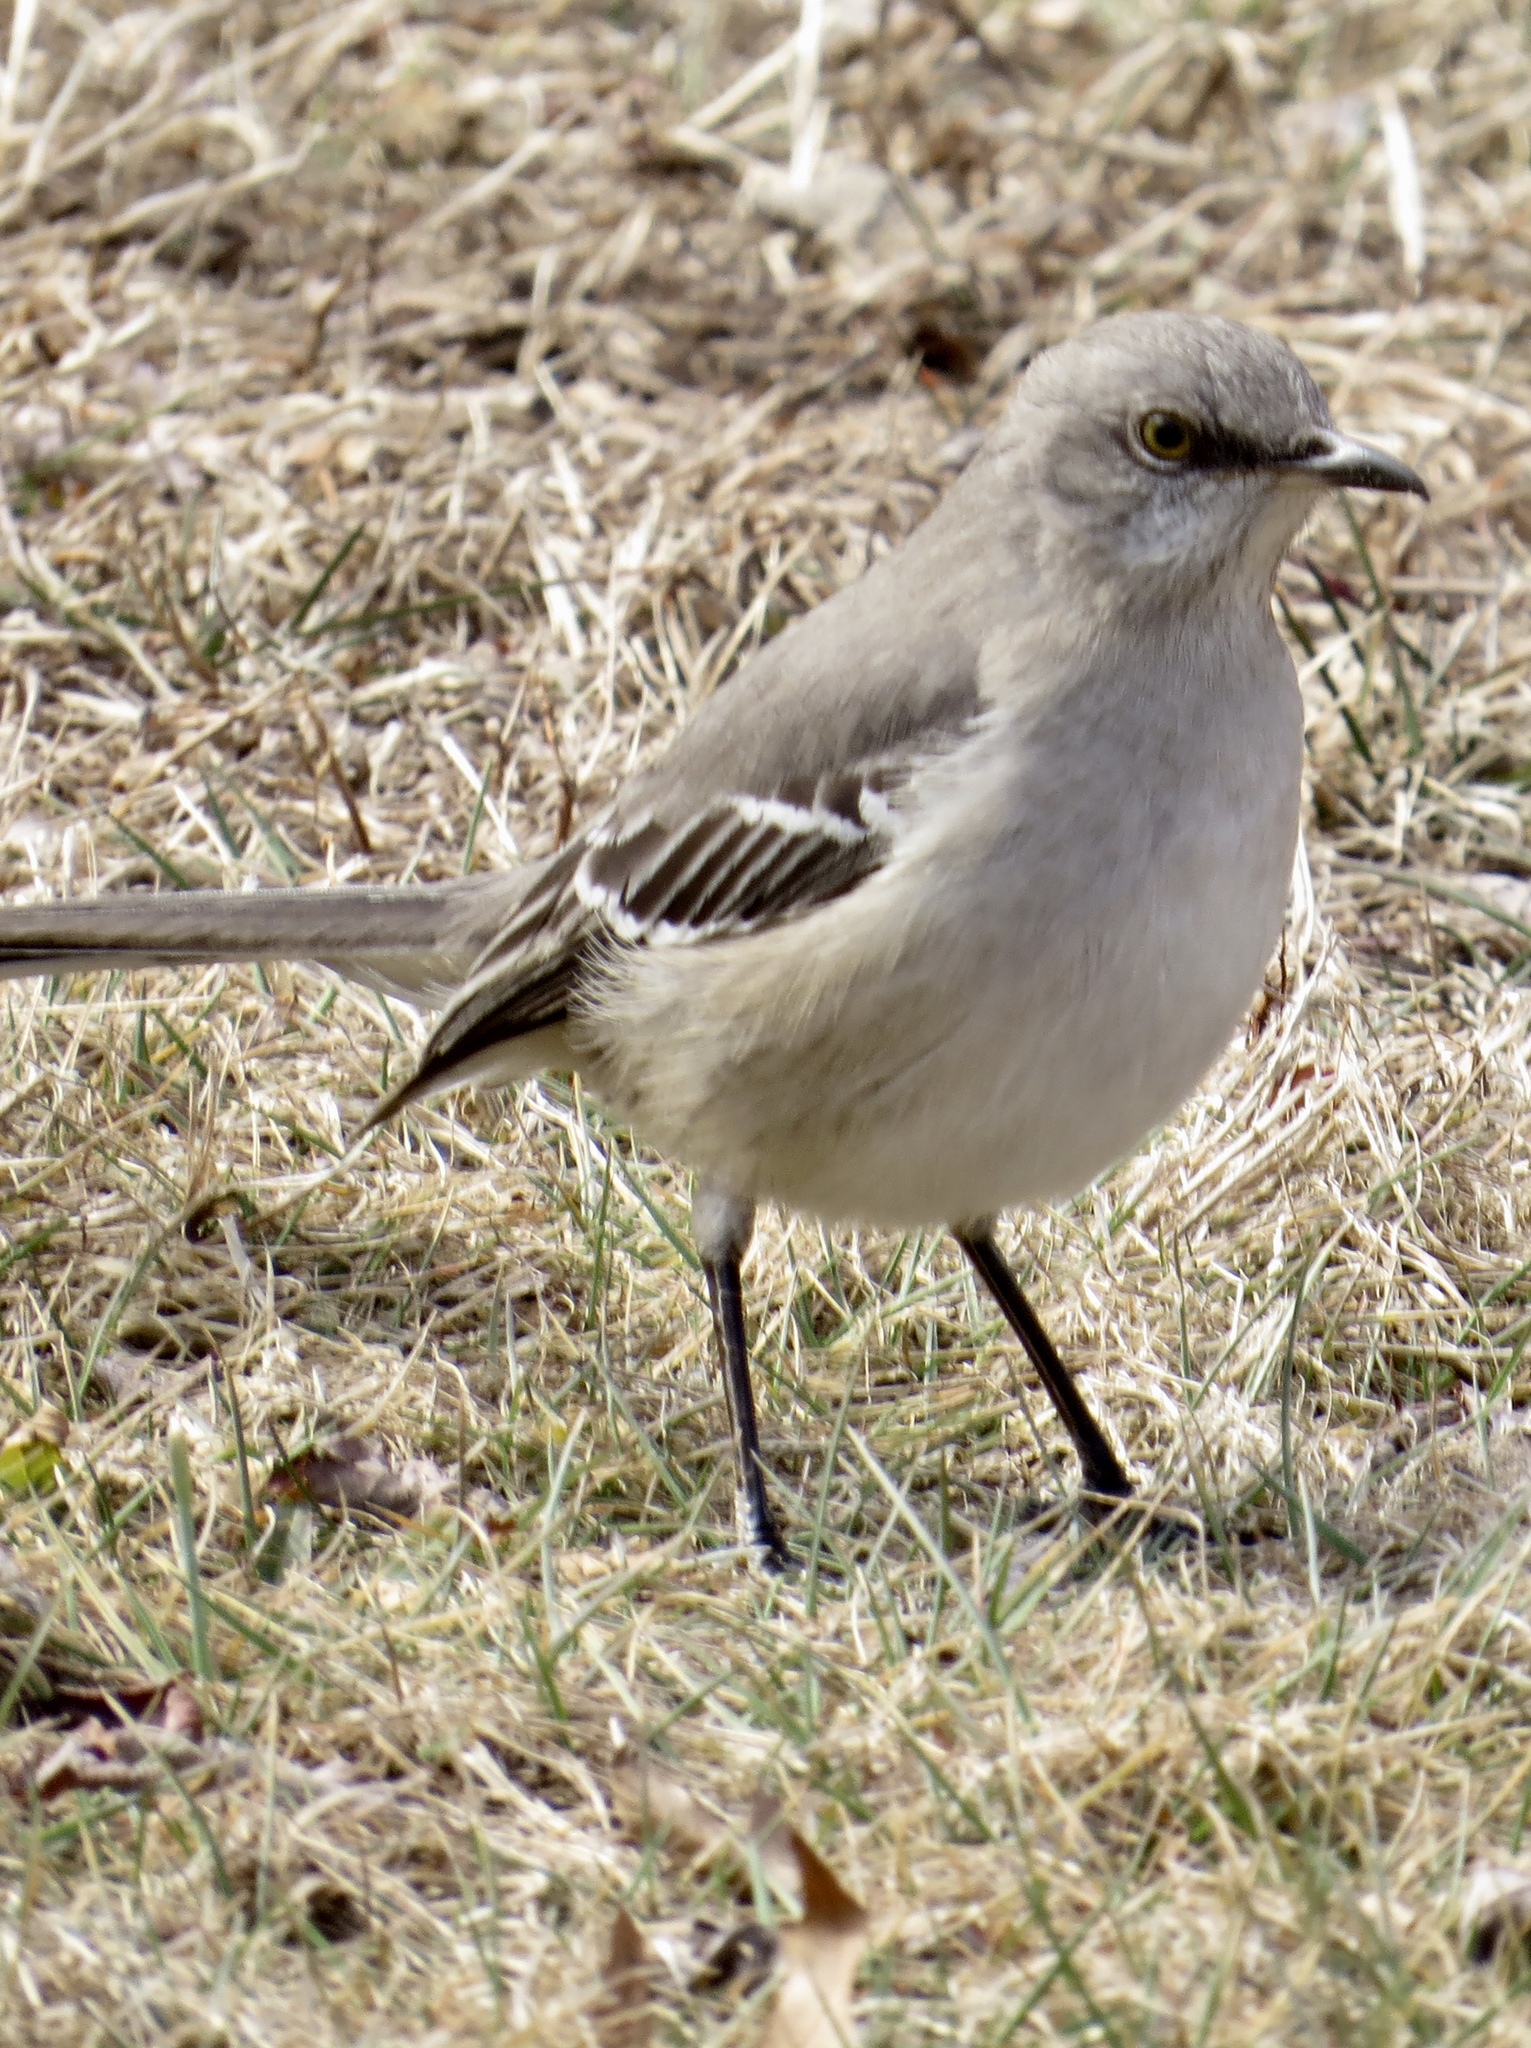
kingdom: Animalia
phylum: Chordata
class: Aves
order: Passeriformes
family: Mimidae
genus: Mimus
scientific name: Mimus polyglottos
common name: Northern mockingbird
